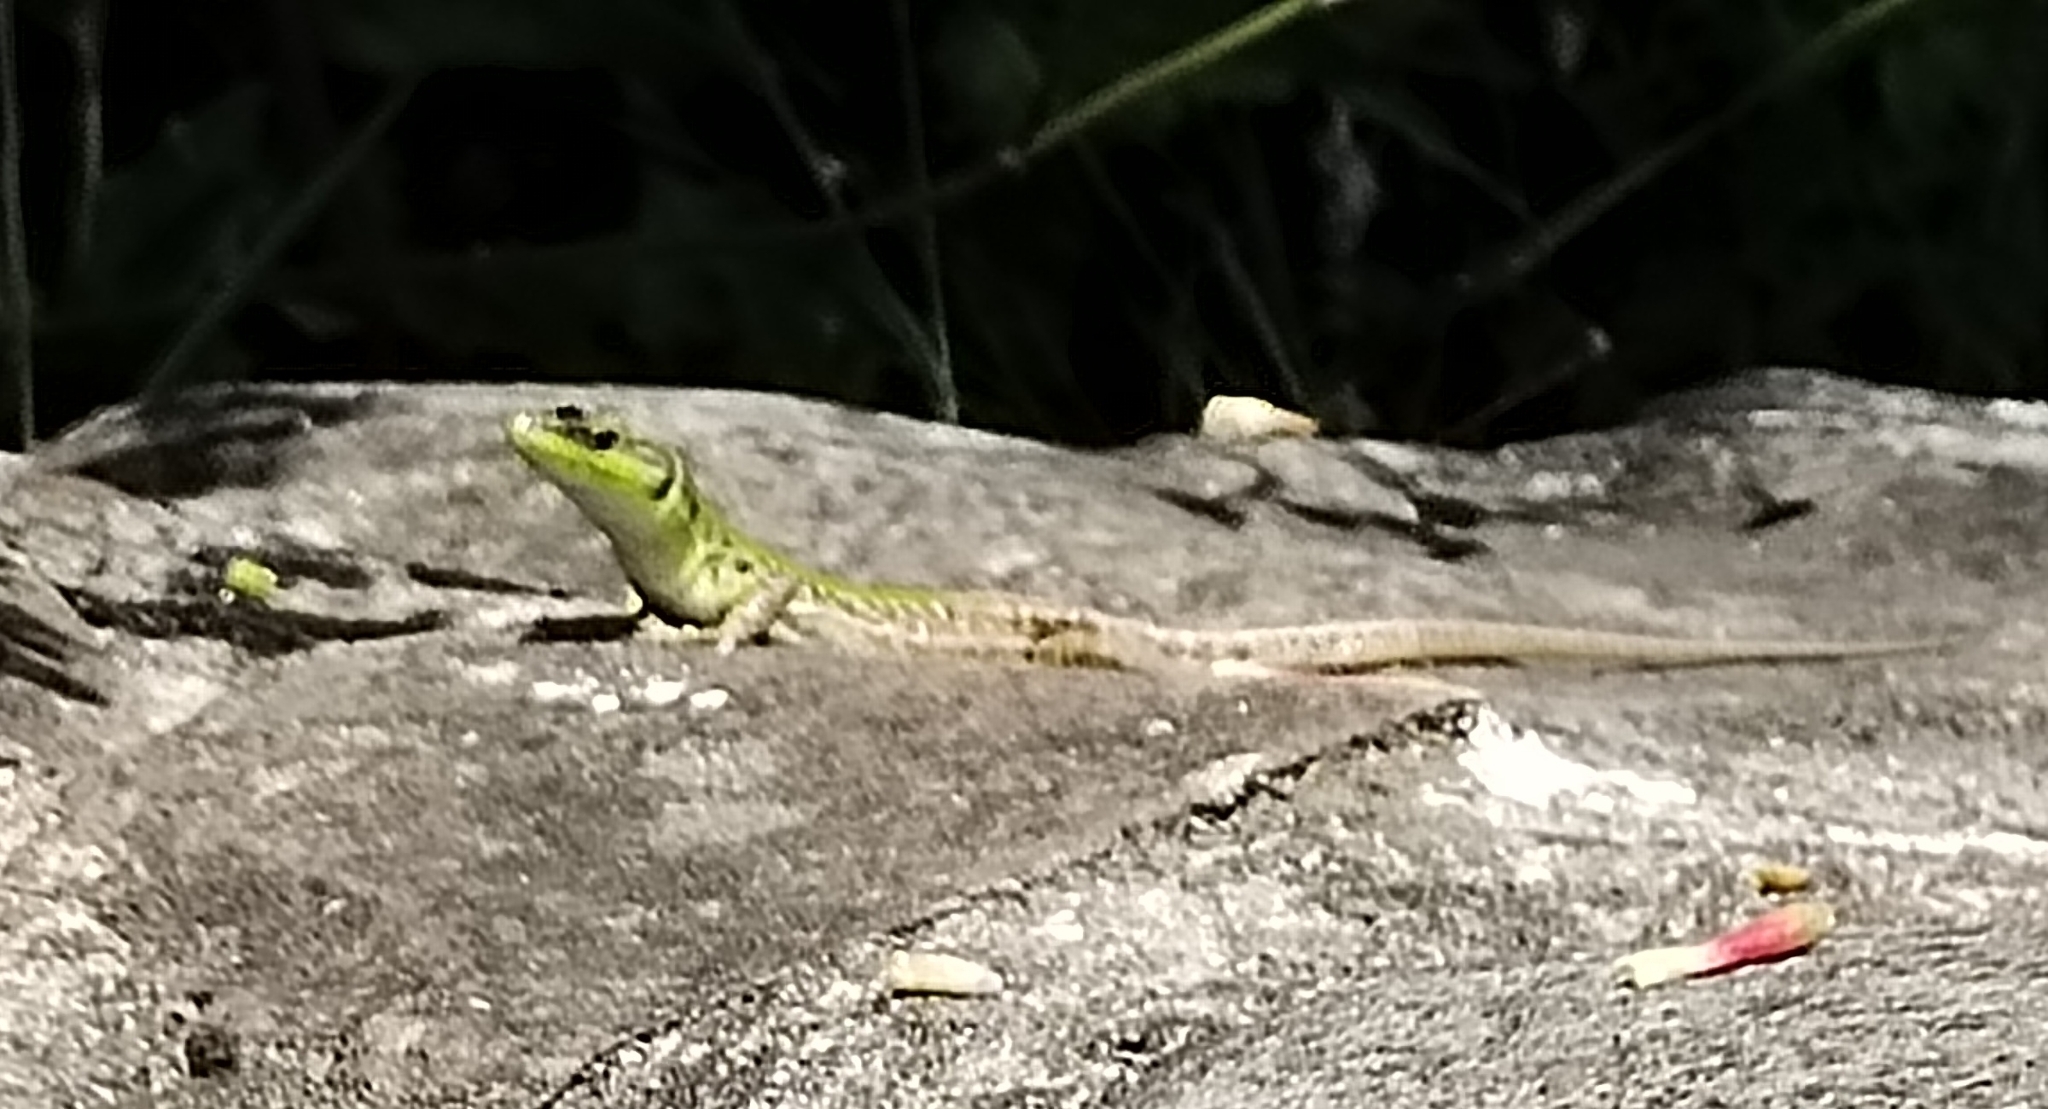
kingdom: Animalia
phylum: Chordata
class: Squamata
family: Lacertidae
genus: Podarcis
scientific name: Podarcis siculus
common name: Italian wall lizard
